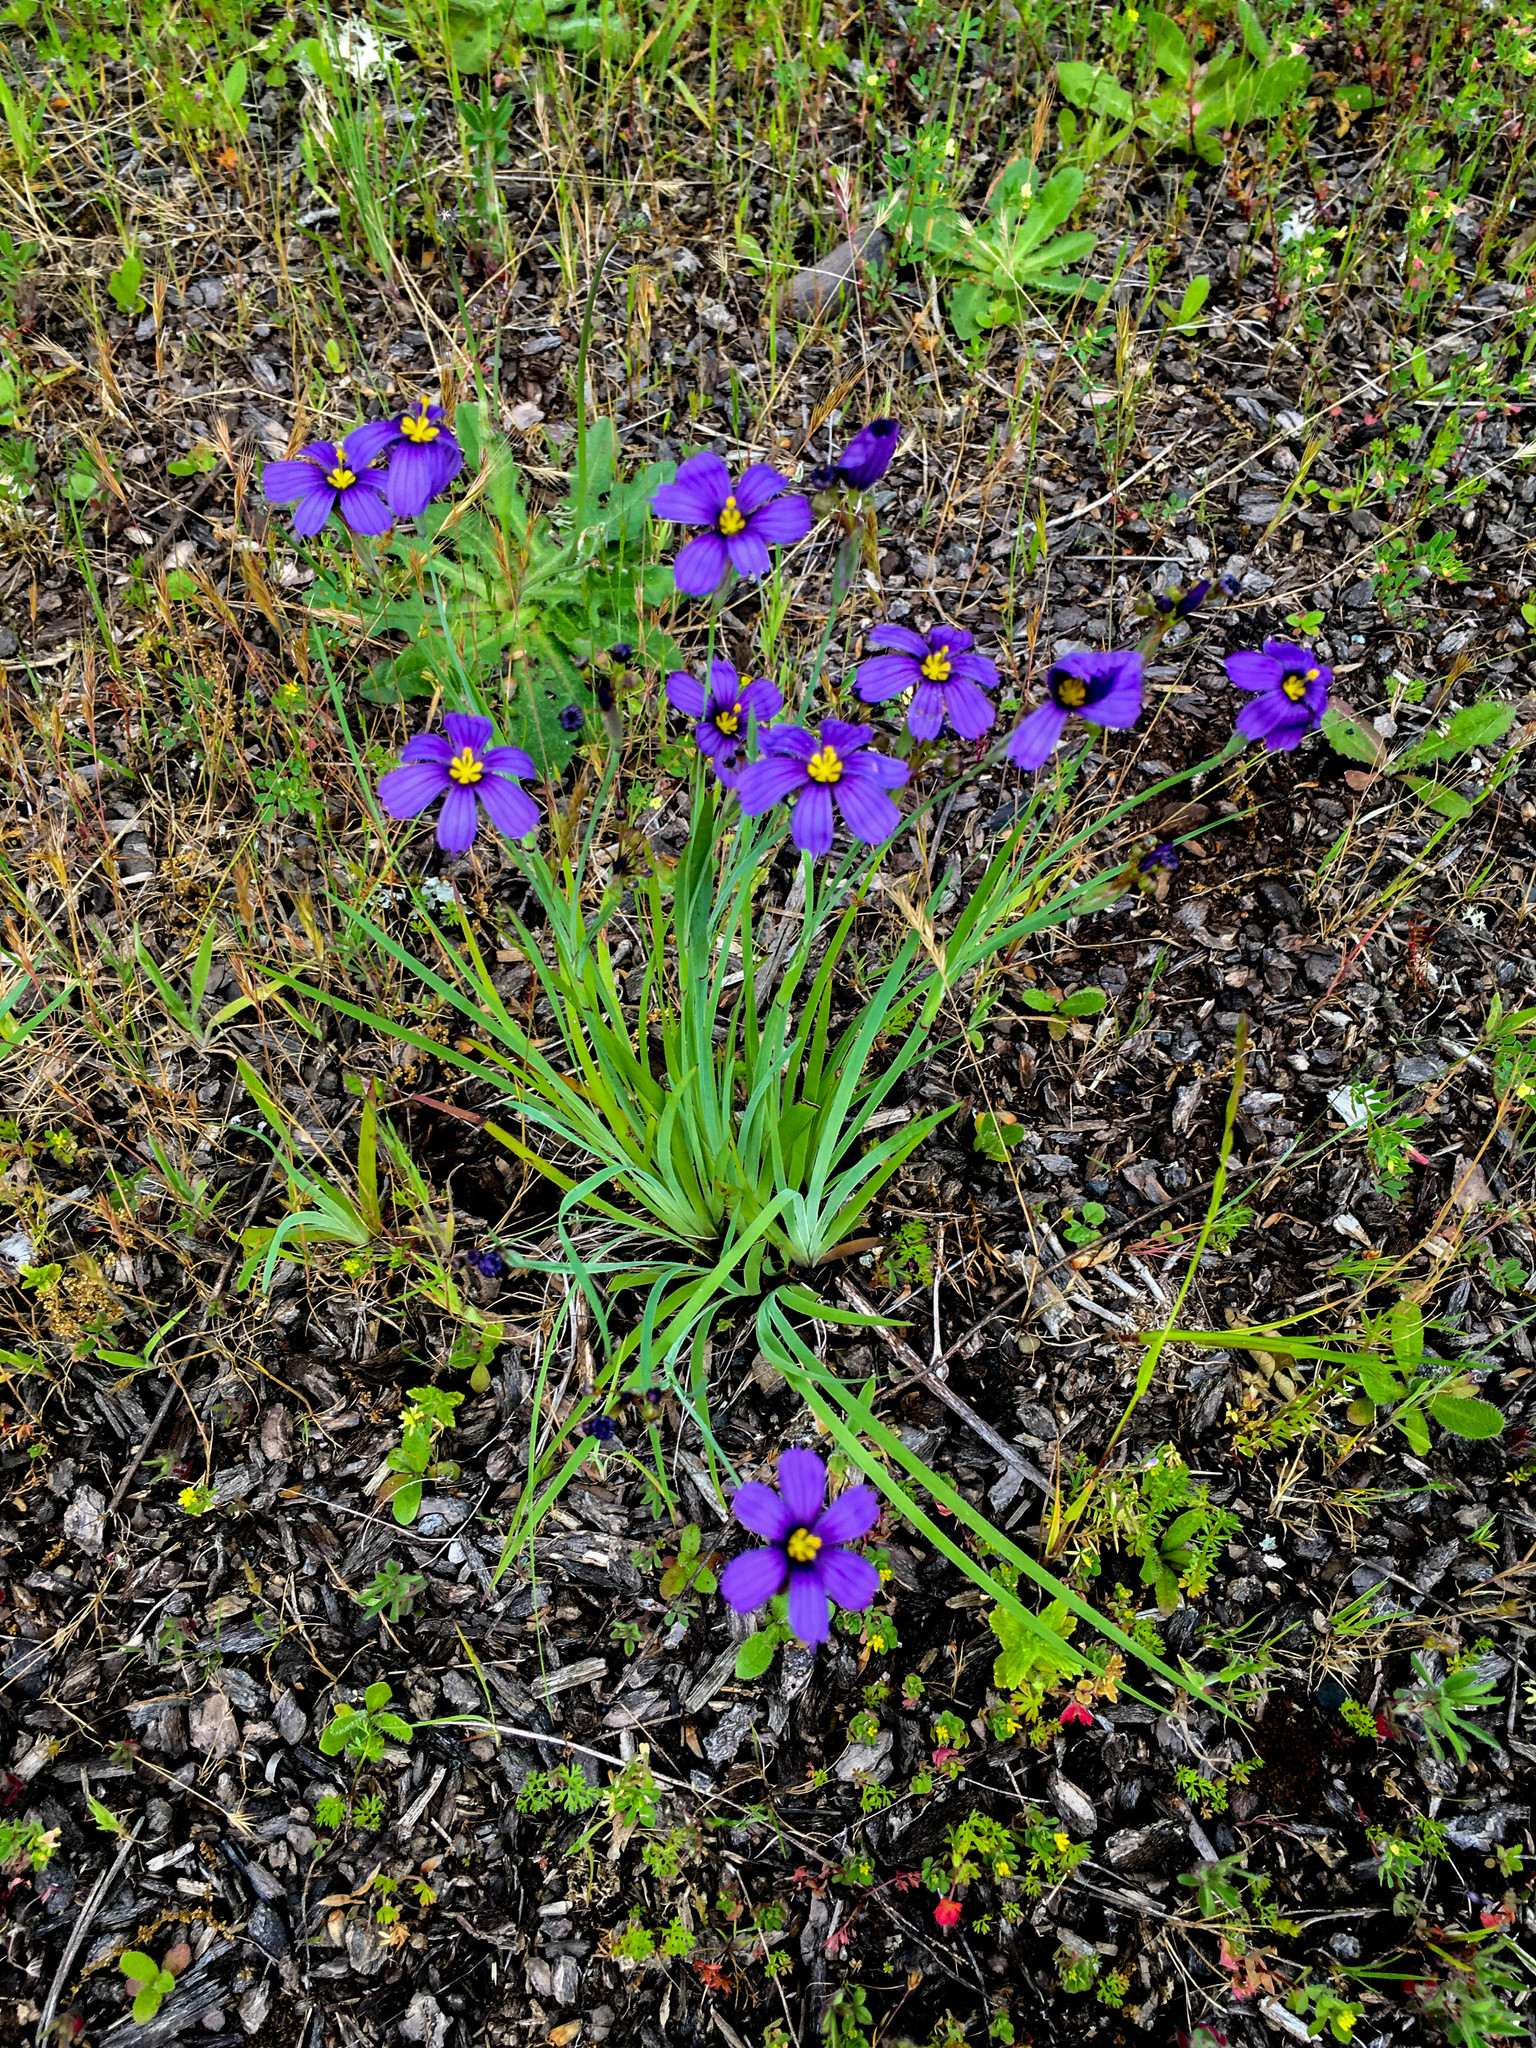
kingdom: Plantae
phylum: Tracheophyta
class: Liliopsida
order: Asparagales
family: Iridaceae
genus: Sisyrinchium
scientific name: Sisyrinchium bellum
